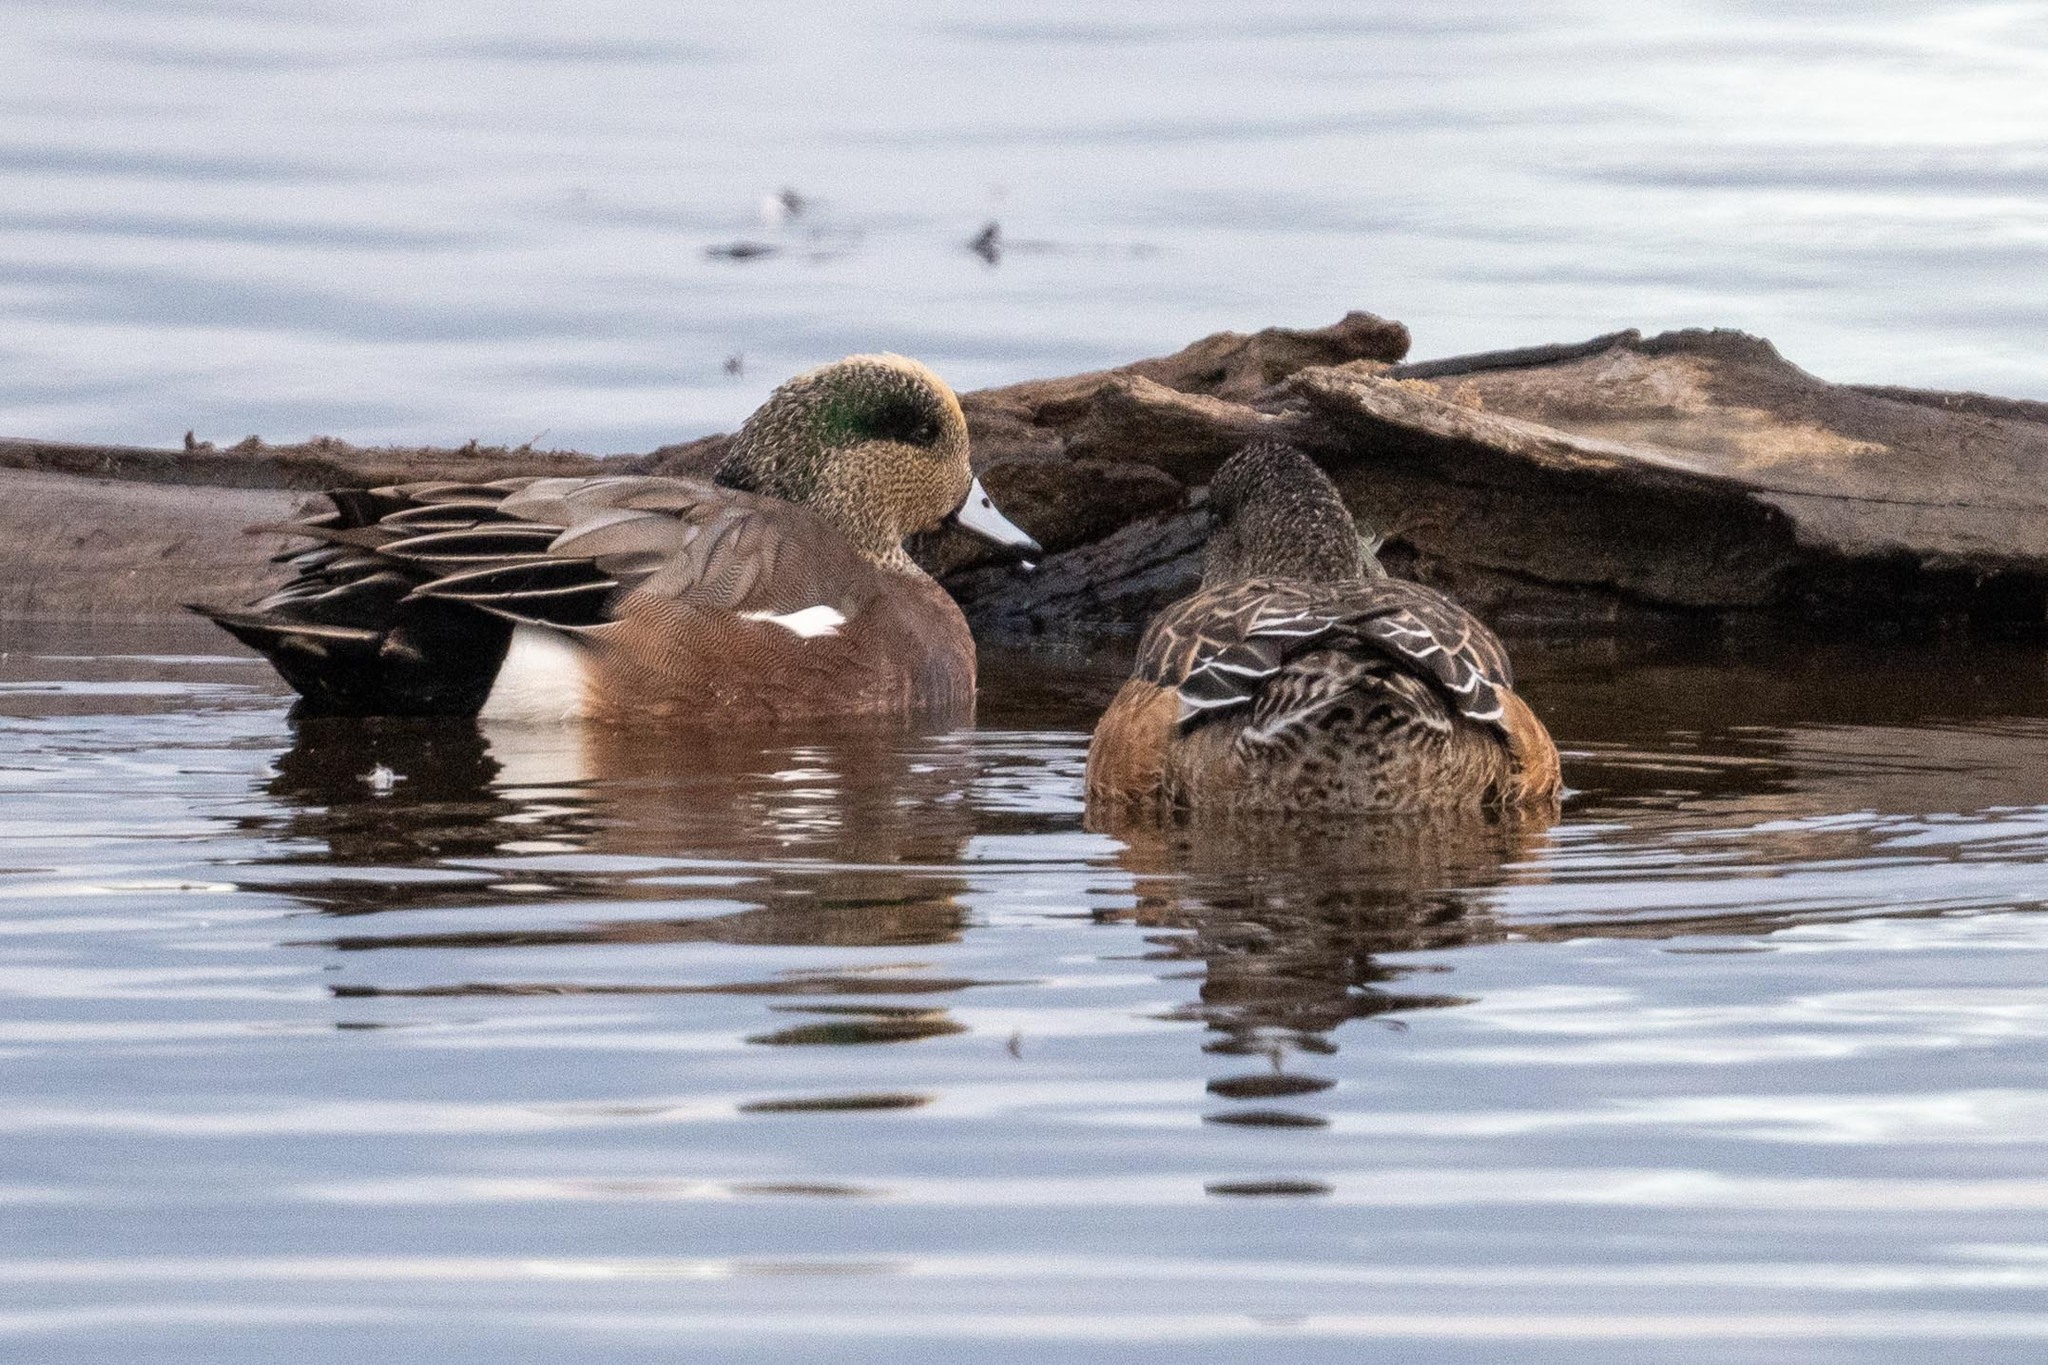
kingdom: Animalia
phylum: Chordata
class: Aves
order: Anseriformes
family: Anatidae
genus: Mareca
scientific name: Mareca americana
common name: American wigeon
